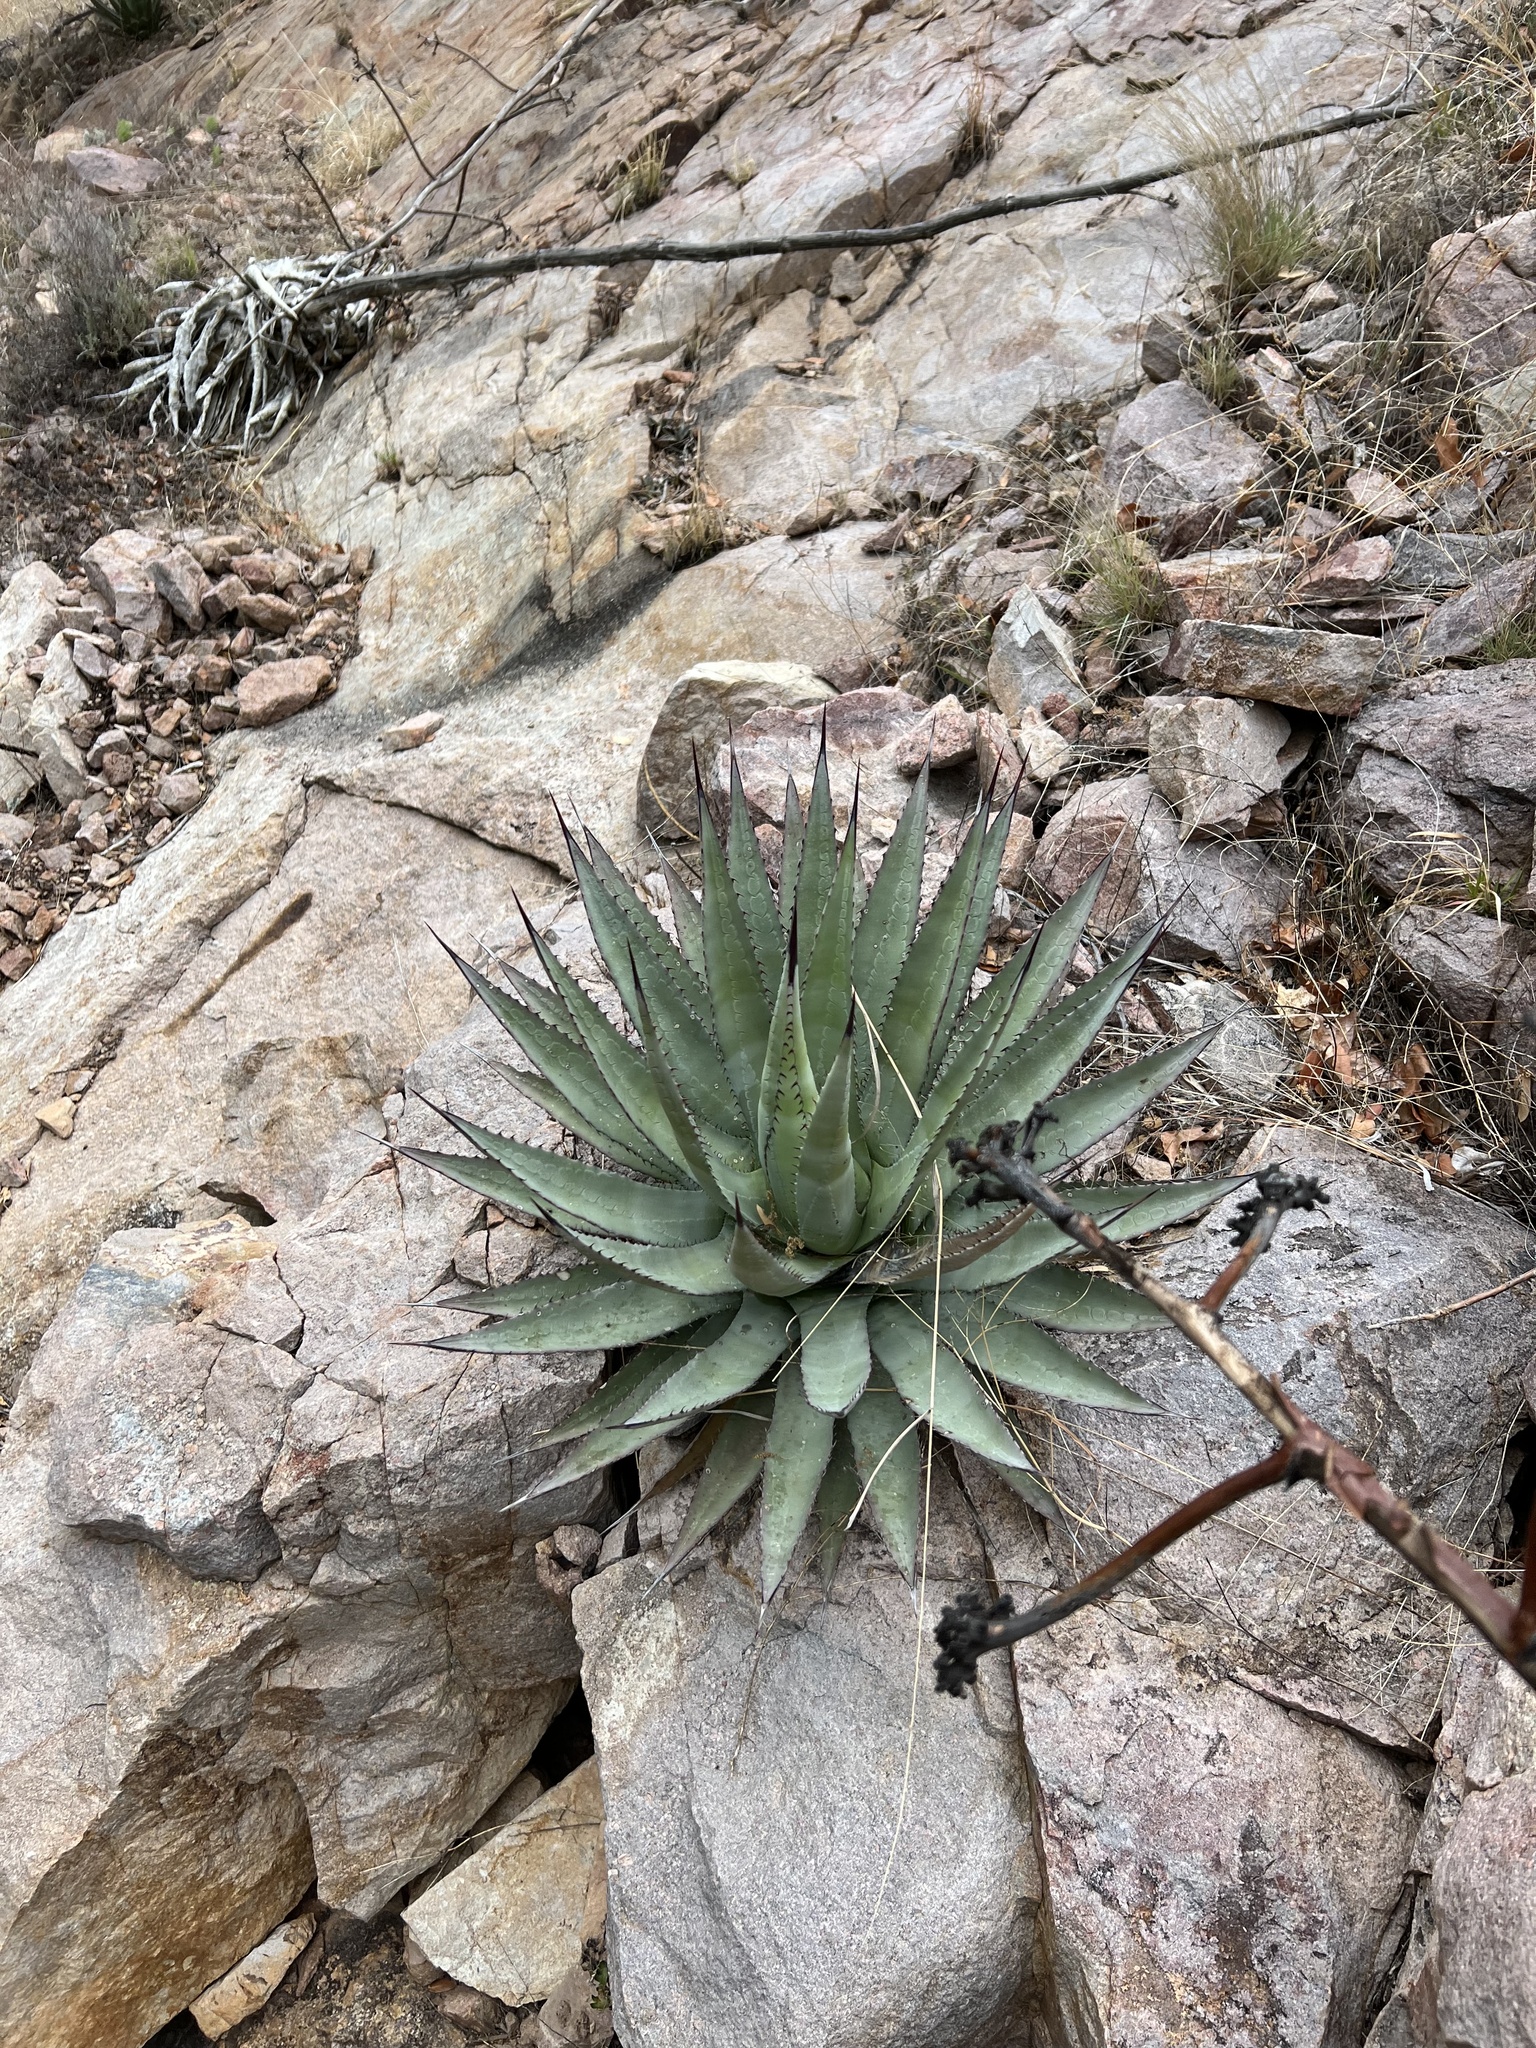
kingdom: Plantae
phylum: Tracheophyta
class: Liliopsida
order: Asparagales
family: Asparagaceae
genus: Agave
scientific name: Agave palmeri
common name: Palmer agave
